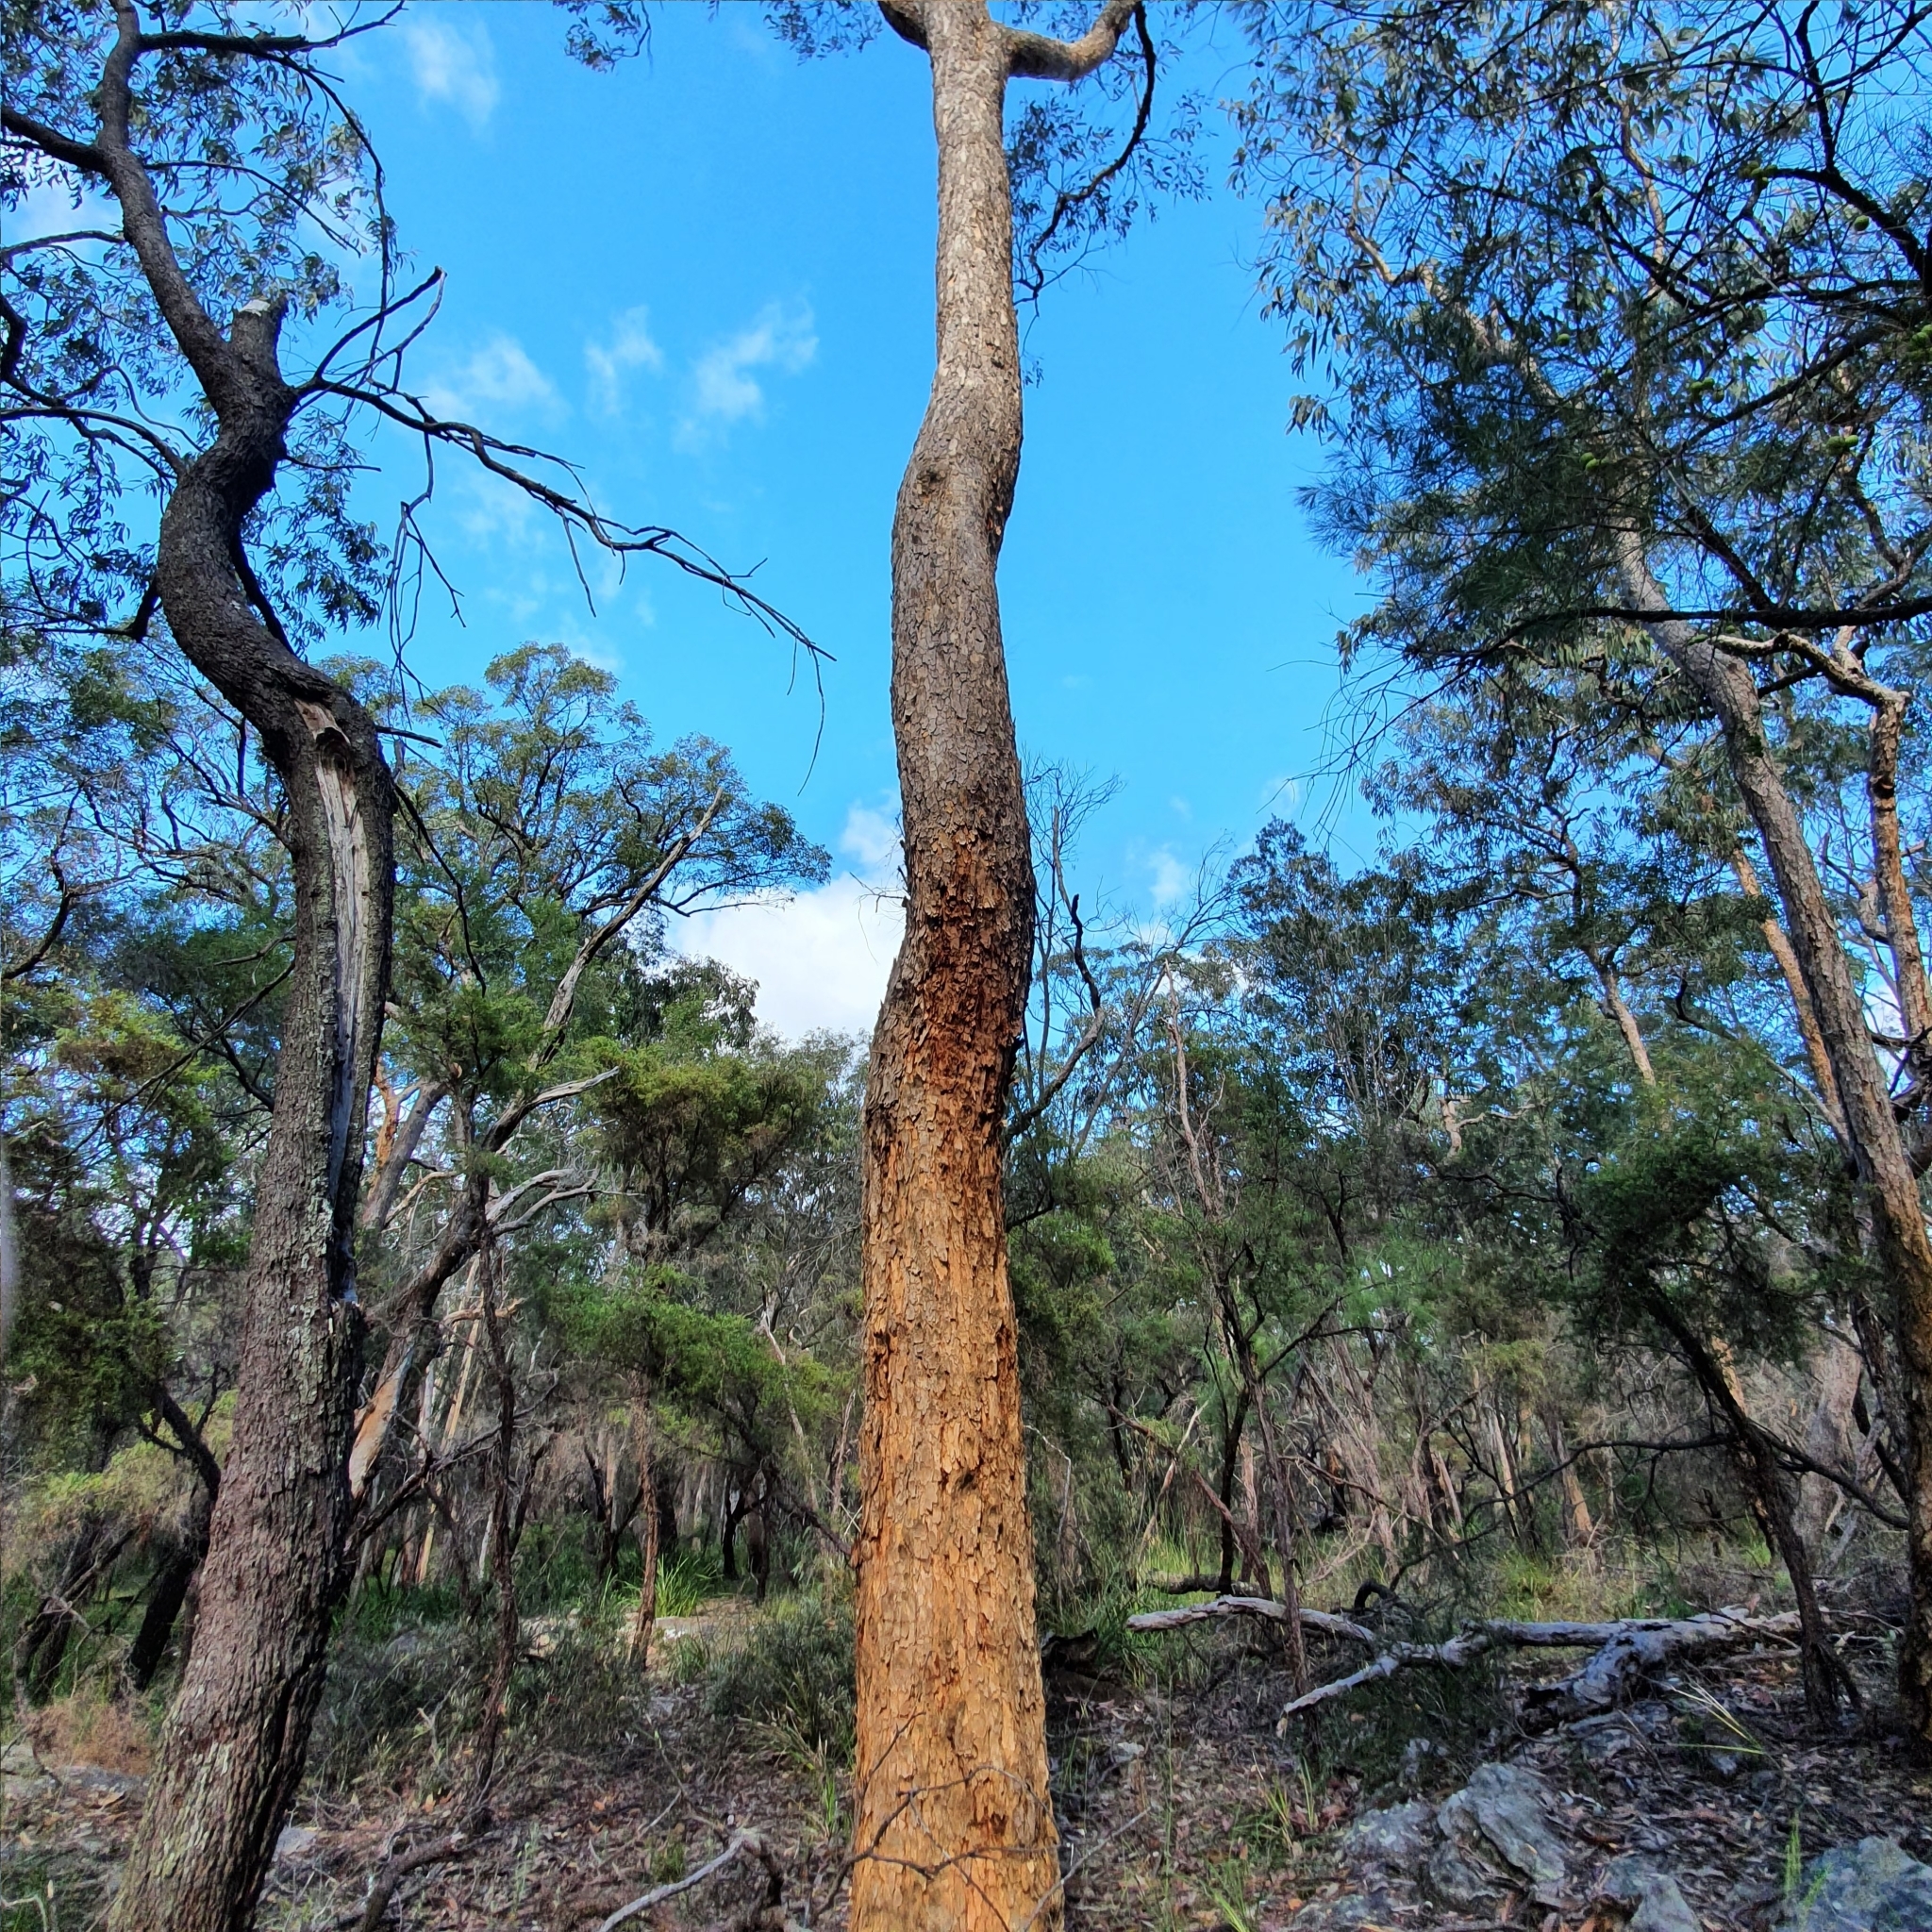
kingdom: Plantae
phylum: Tracheophyta
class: Magnoliopsida
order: Myrtales
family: Myrtaceae
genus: Corymbia
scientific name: Corymbia eximia
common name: Yellow bloodwood
